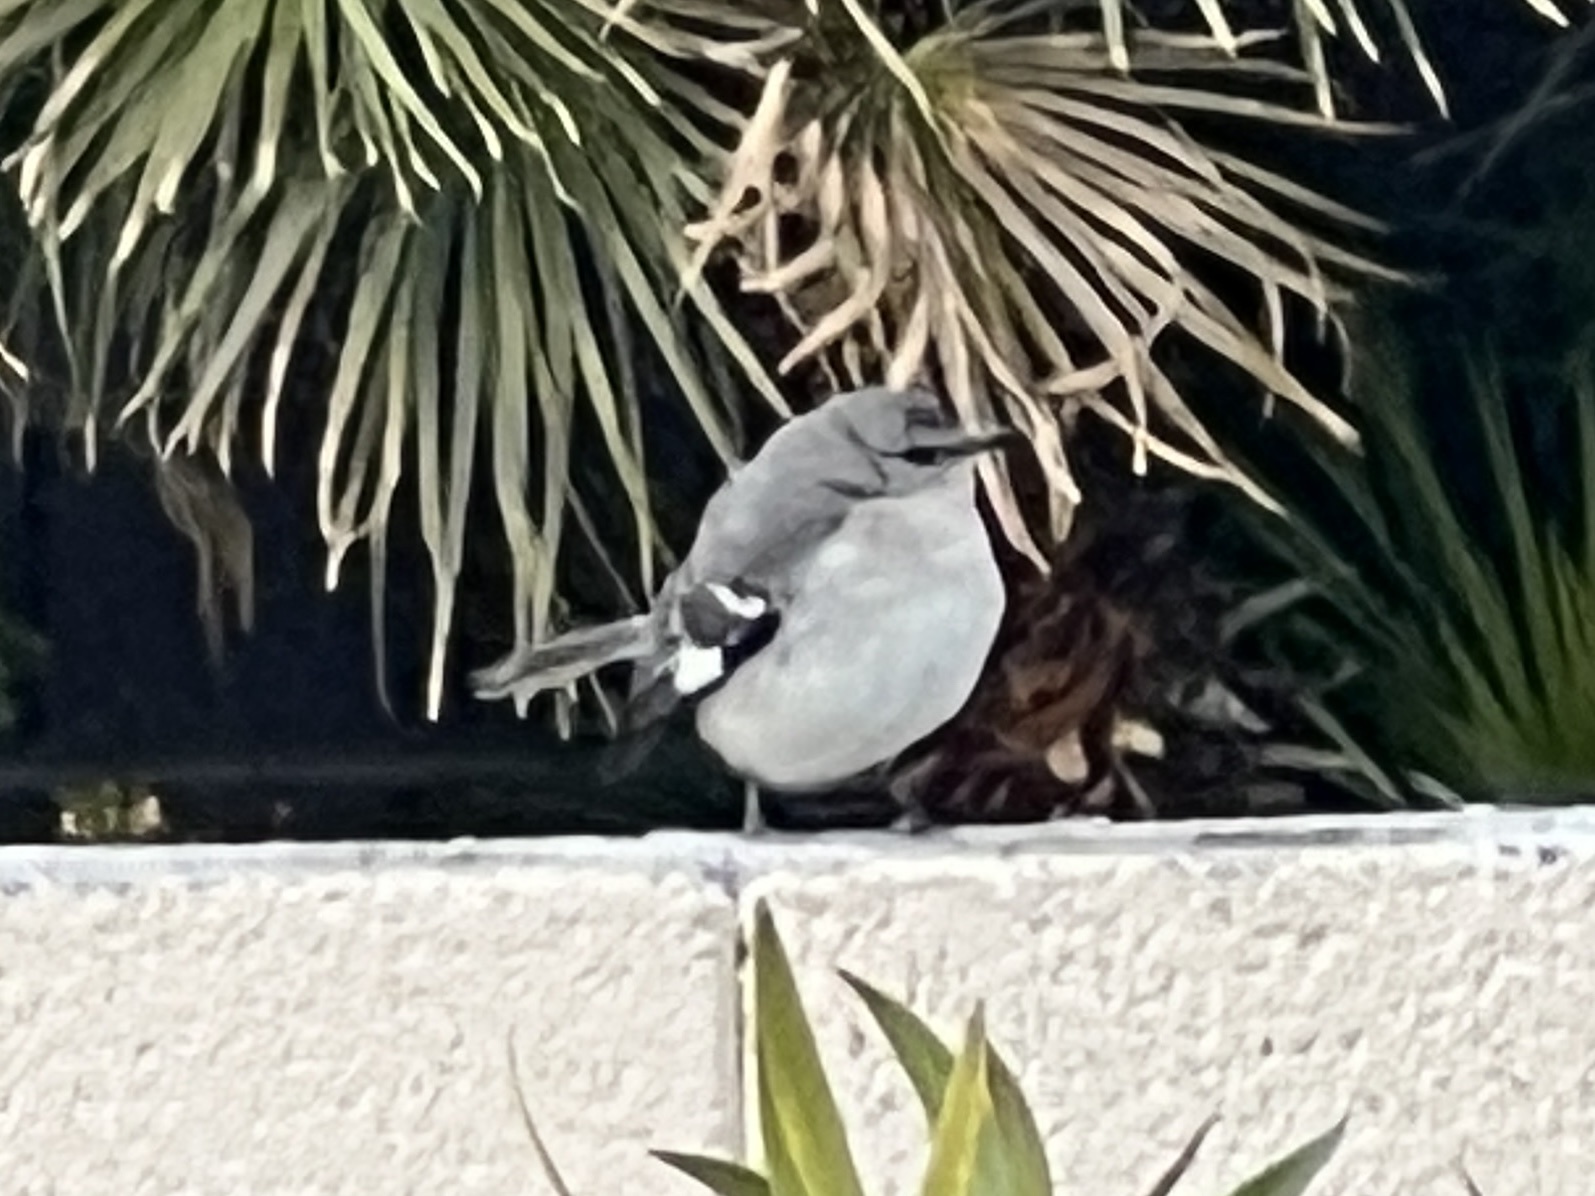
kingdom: Animalia
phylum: Chordata
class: Aves
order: Passeriformes
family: Mimidae
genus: Mimus
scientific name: Mimus polyglottos
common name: Northern mockingbird
